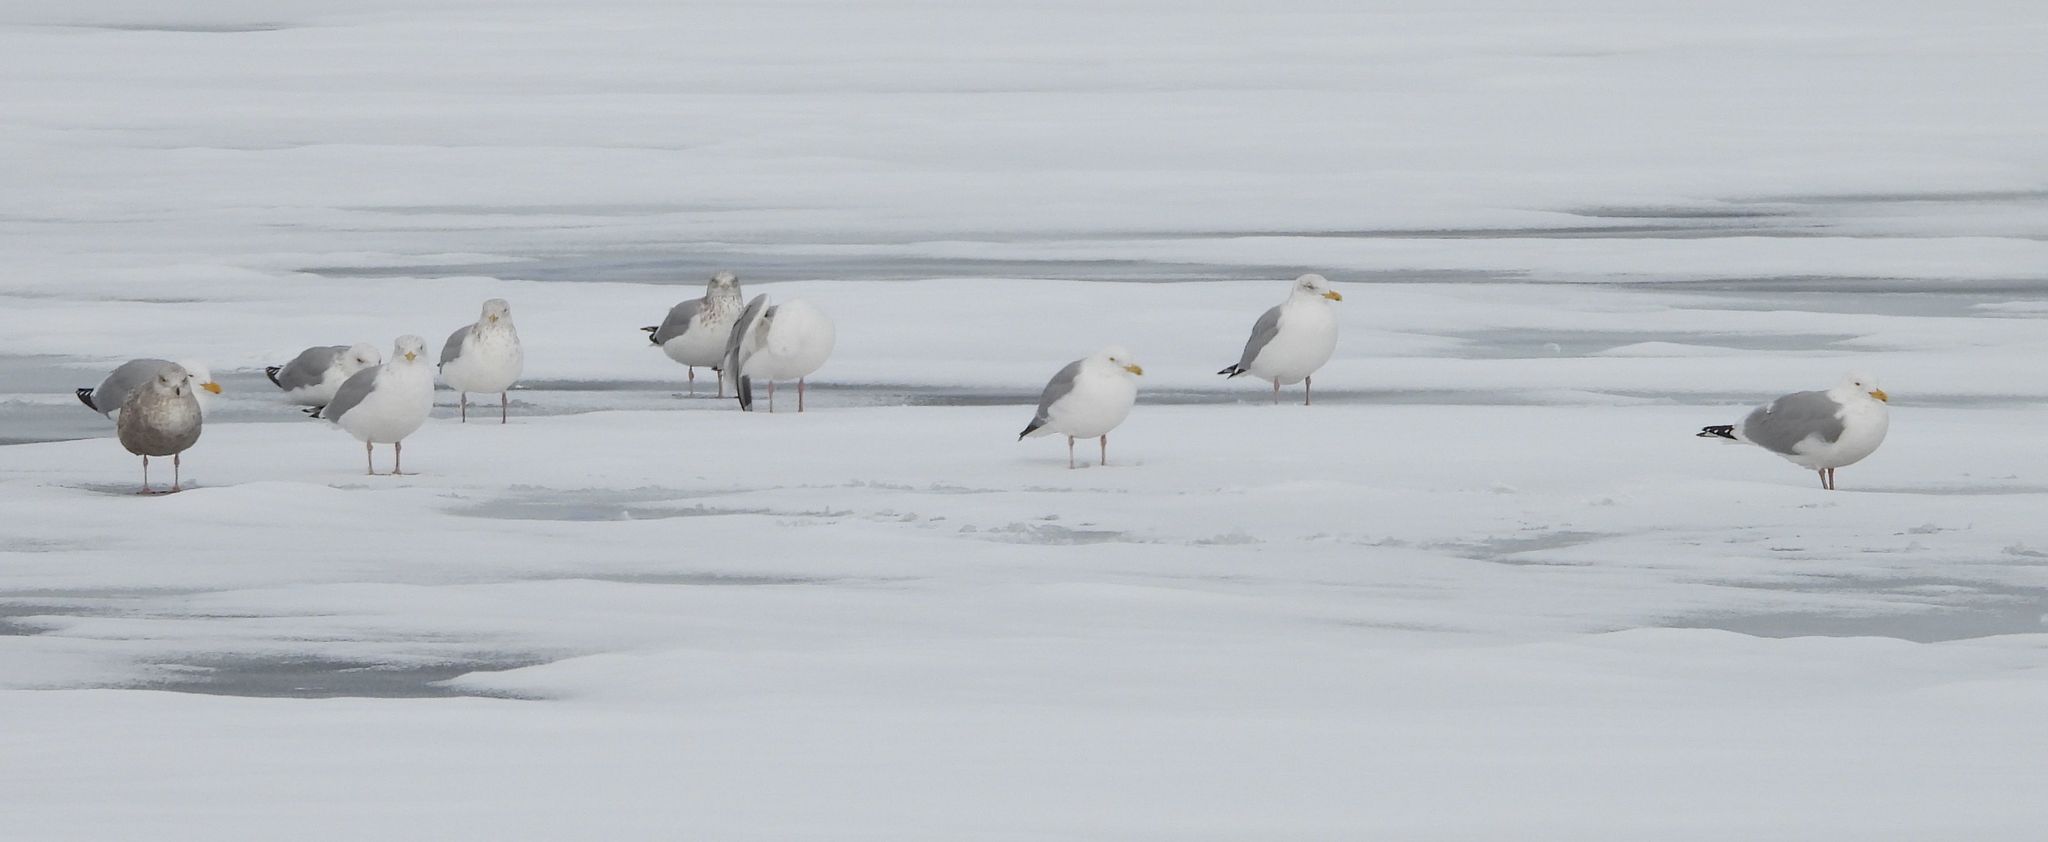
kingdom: Animalia
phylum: Chordata
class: Aves
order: Charadriiformes
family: Laridae
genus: Larus
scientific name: Larus argentatus
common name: Herring gull
